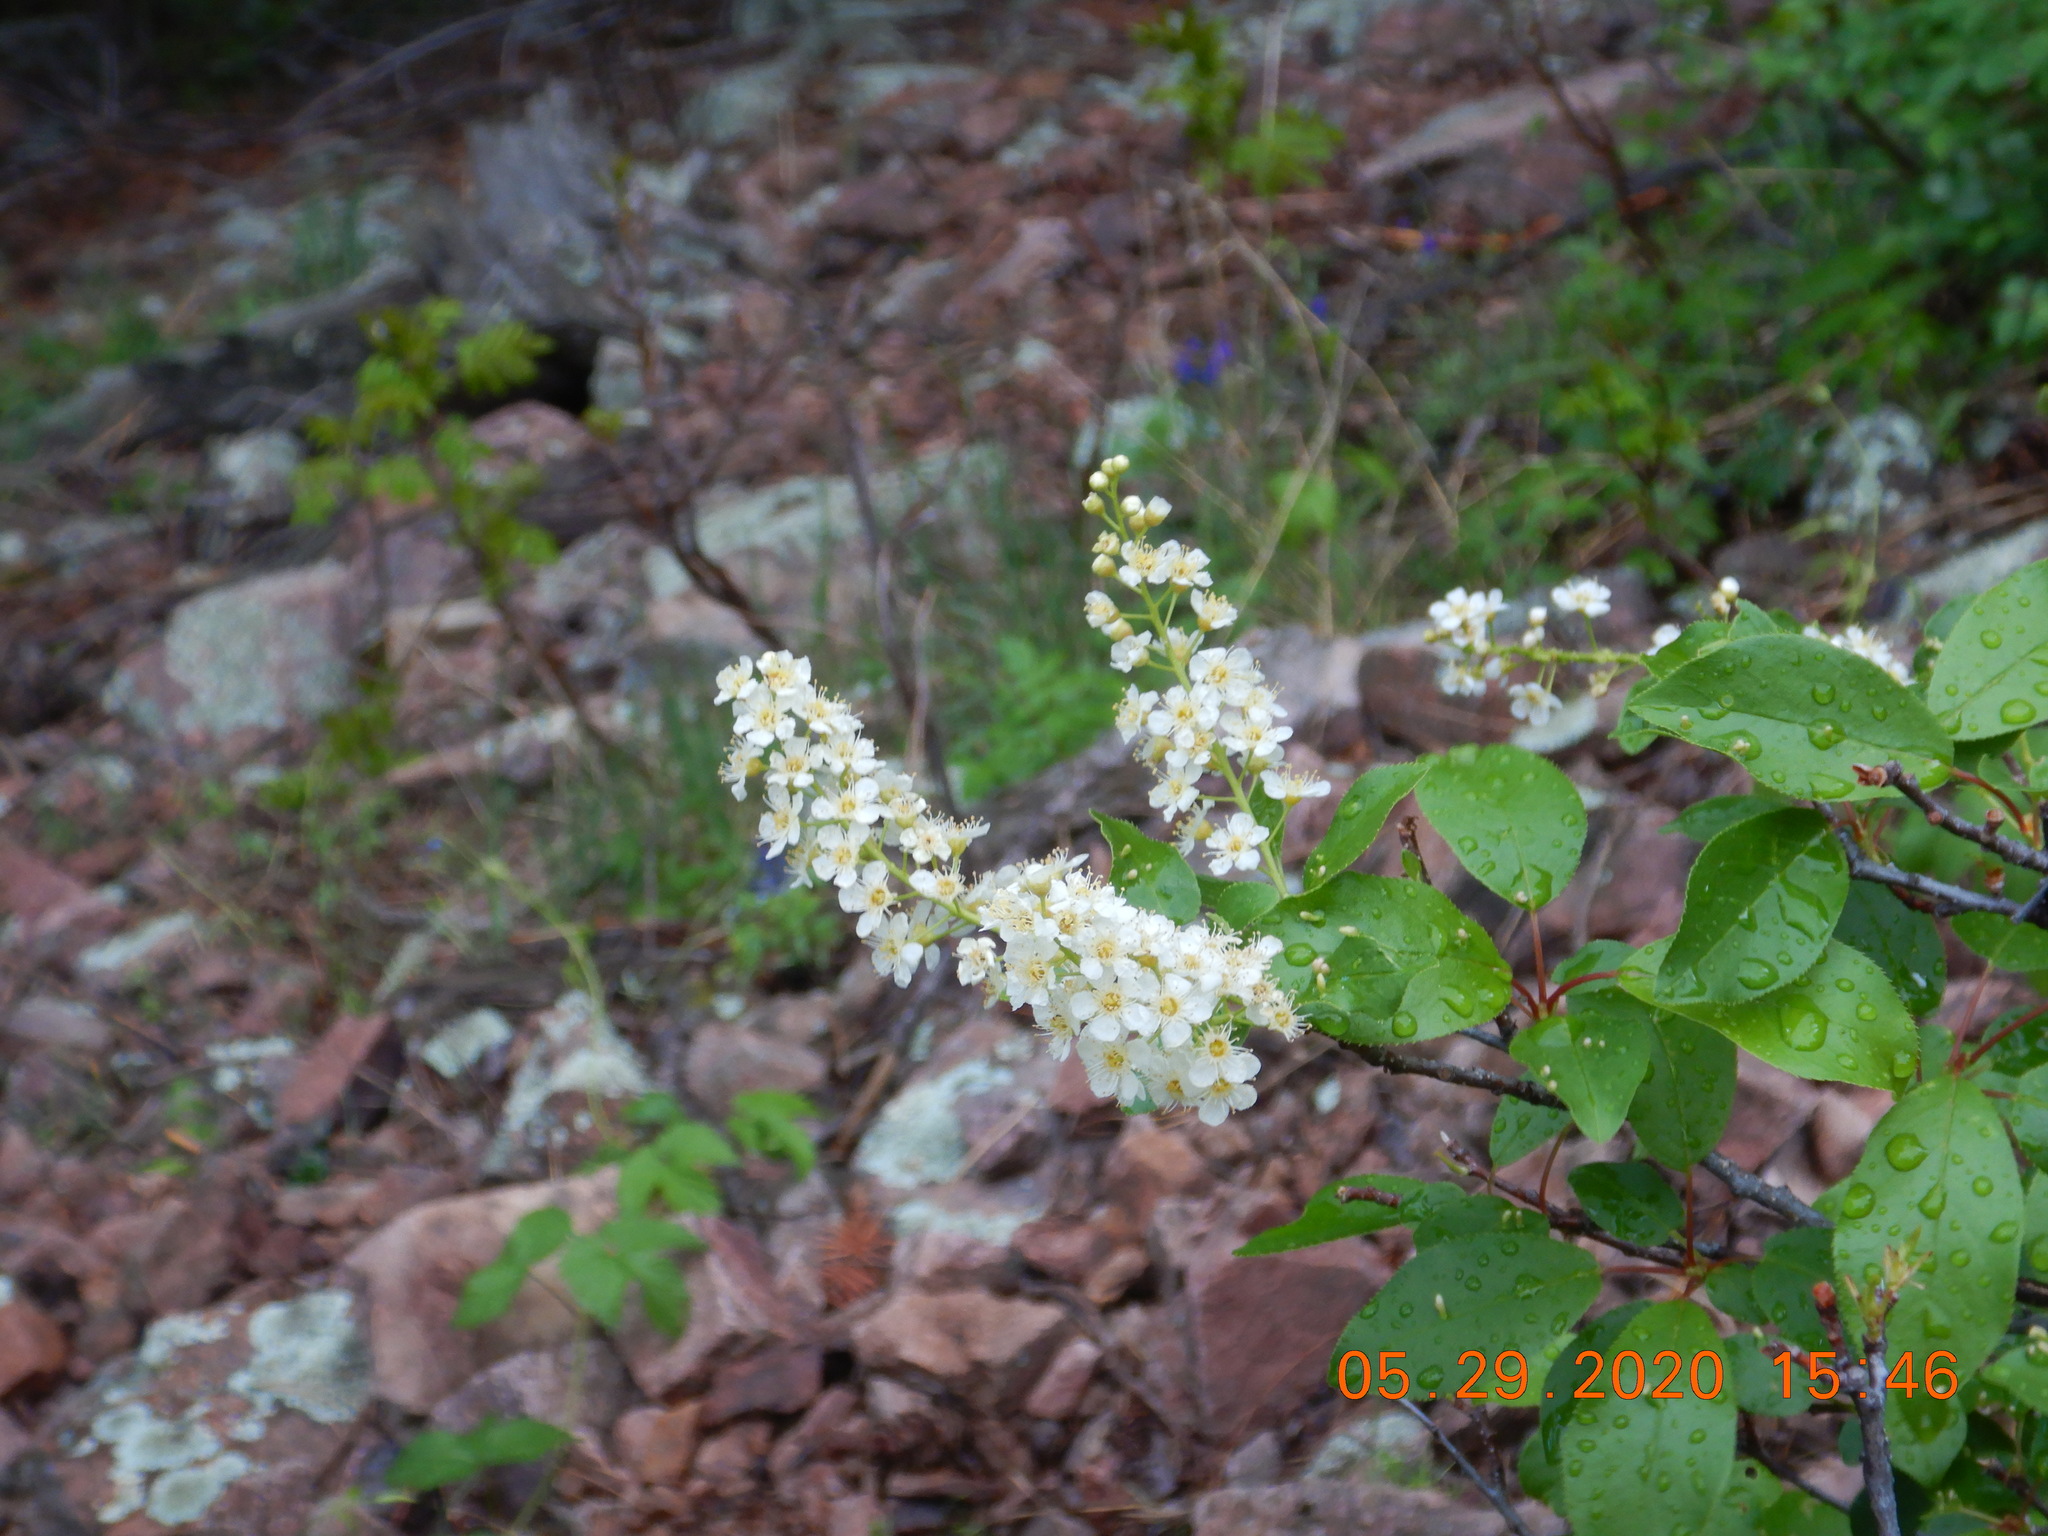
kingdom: Plantae
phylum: Tracheophyta
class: Magnoliopsida
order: Rosales
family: Rosaceae
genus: Prunus
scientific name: Prunus virginiana
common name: Chokecherry
